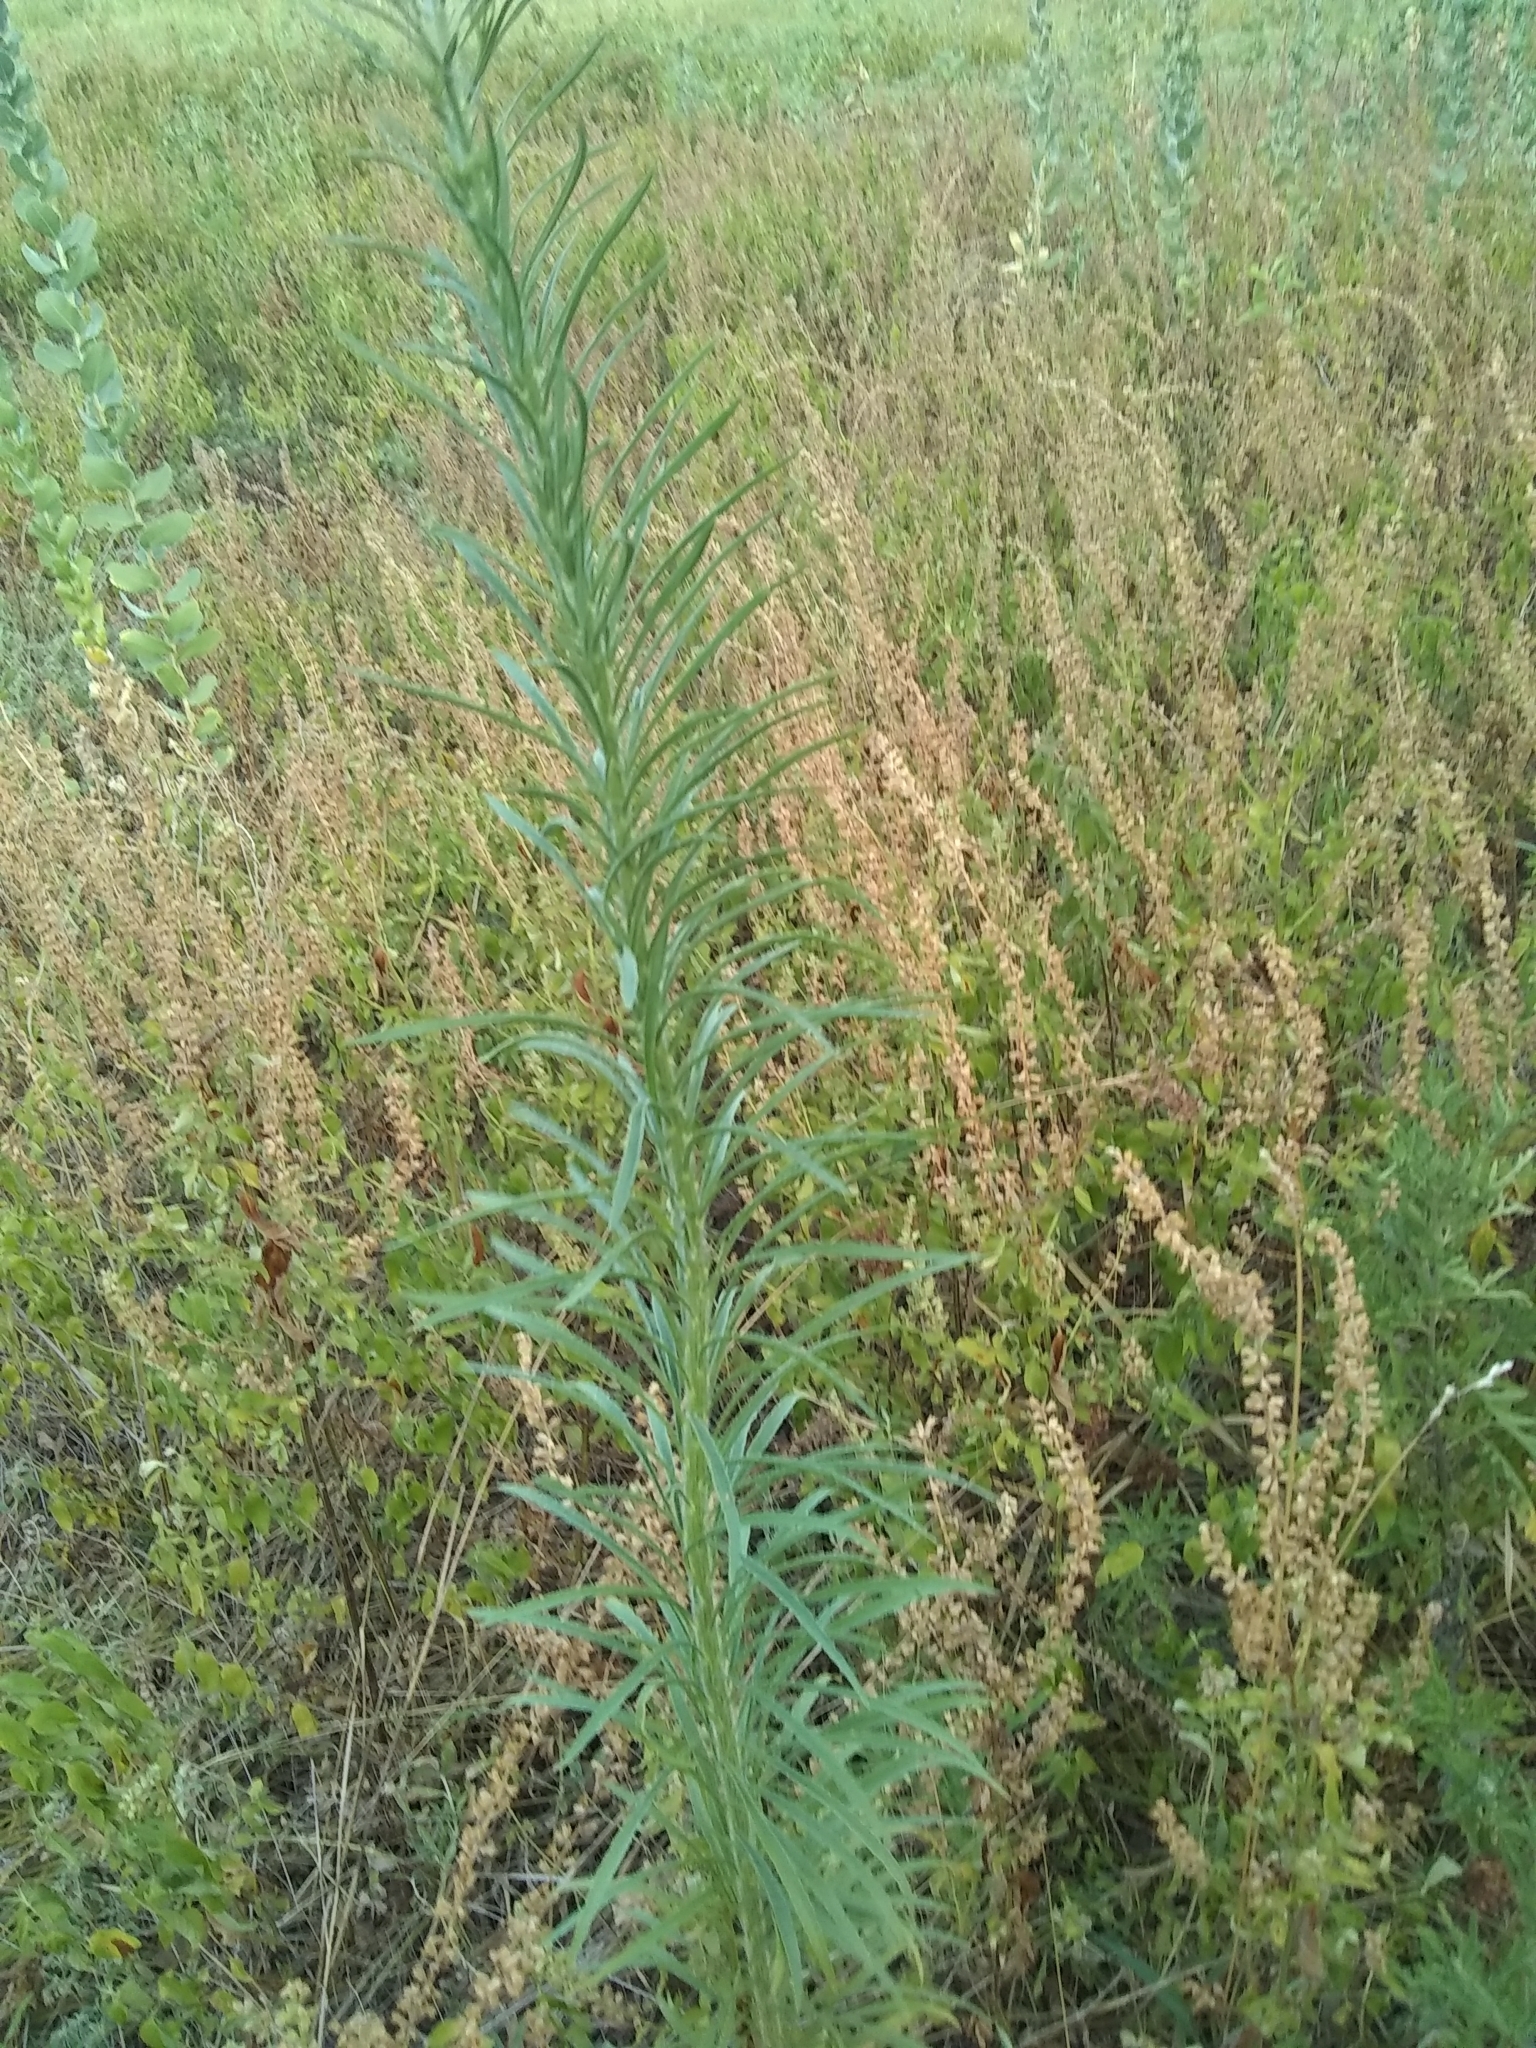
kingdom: Plantae
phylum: Tracheophyta
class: Magnoliopsida
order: Asterales
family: Asteraceae
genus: Erigeron
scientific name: Erigeron canadensis
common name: Canadian fleabane
